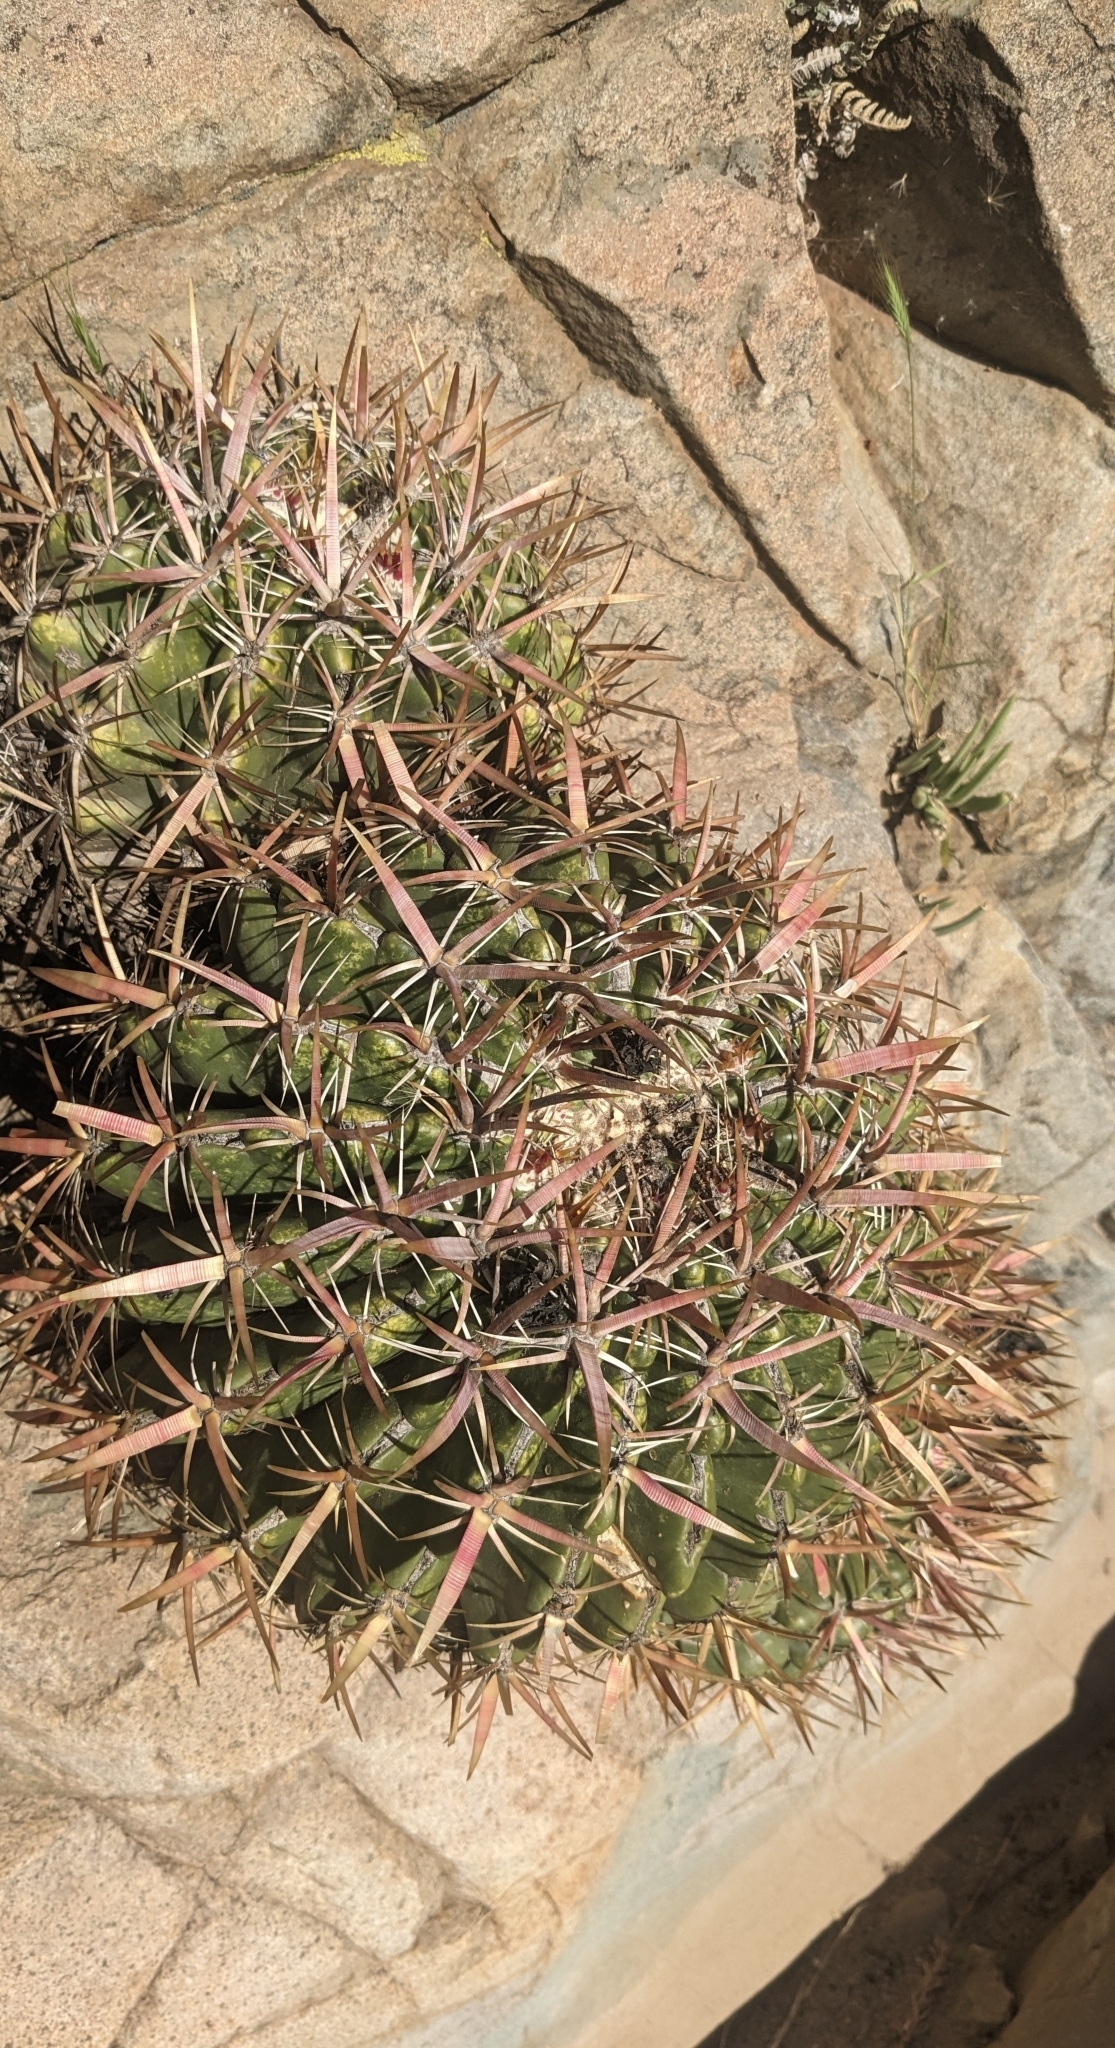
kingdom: Plantae
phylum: Tracheophyta
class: Magnoliopsida
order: Caryophyllales
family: Cactaceae
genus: Ferocactus
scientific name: Ferocactus viridescens
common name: San diego barrel cactus
